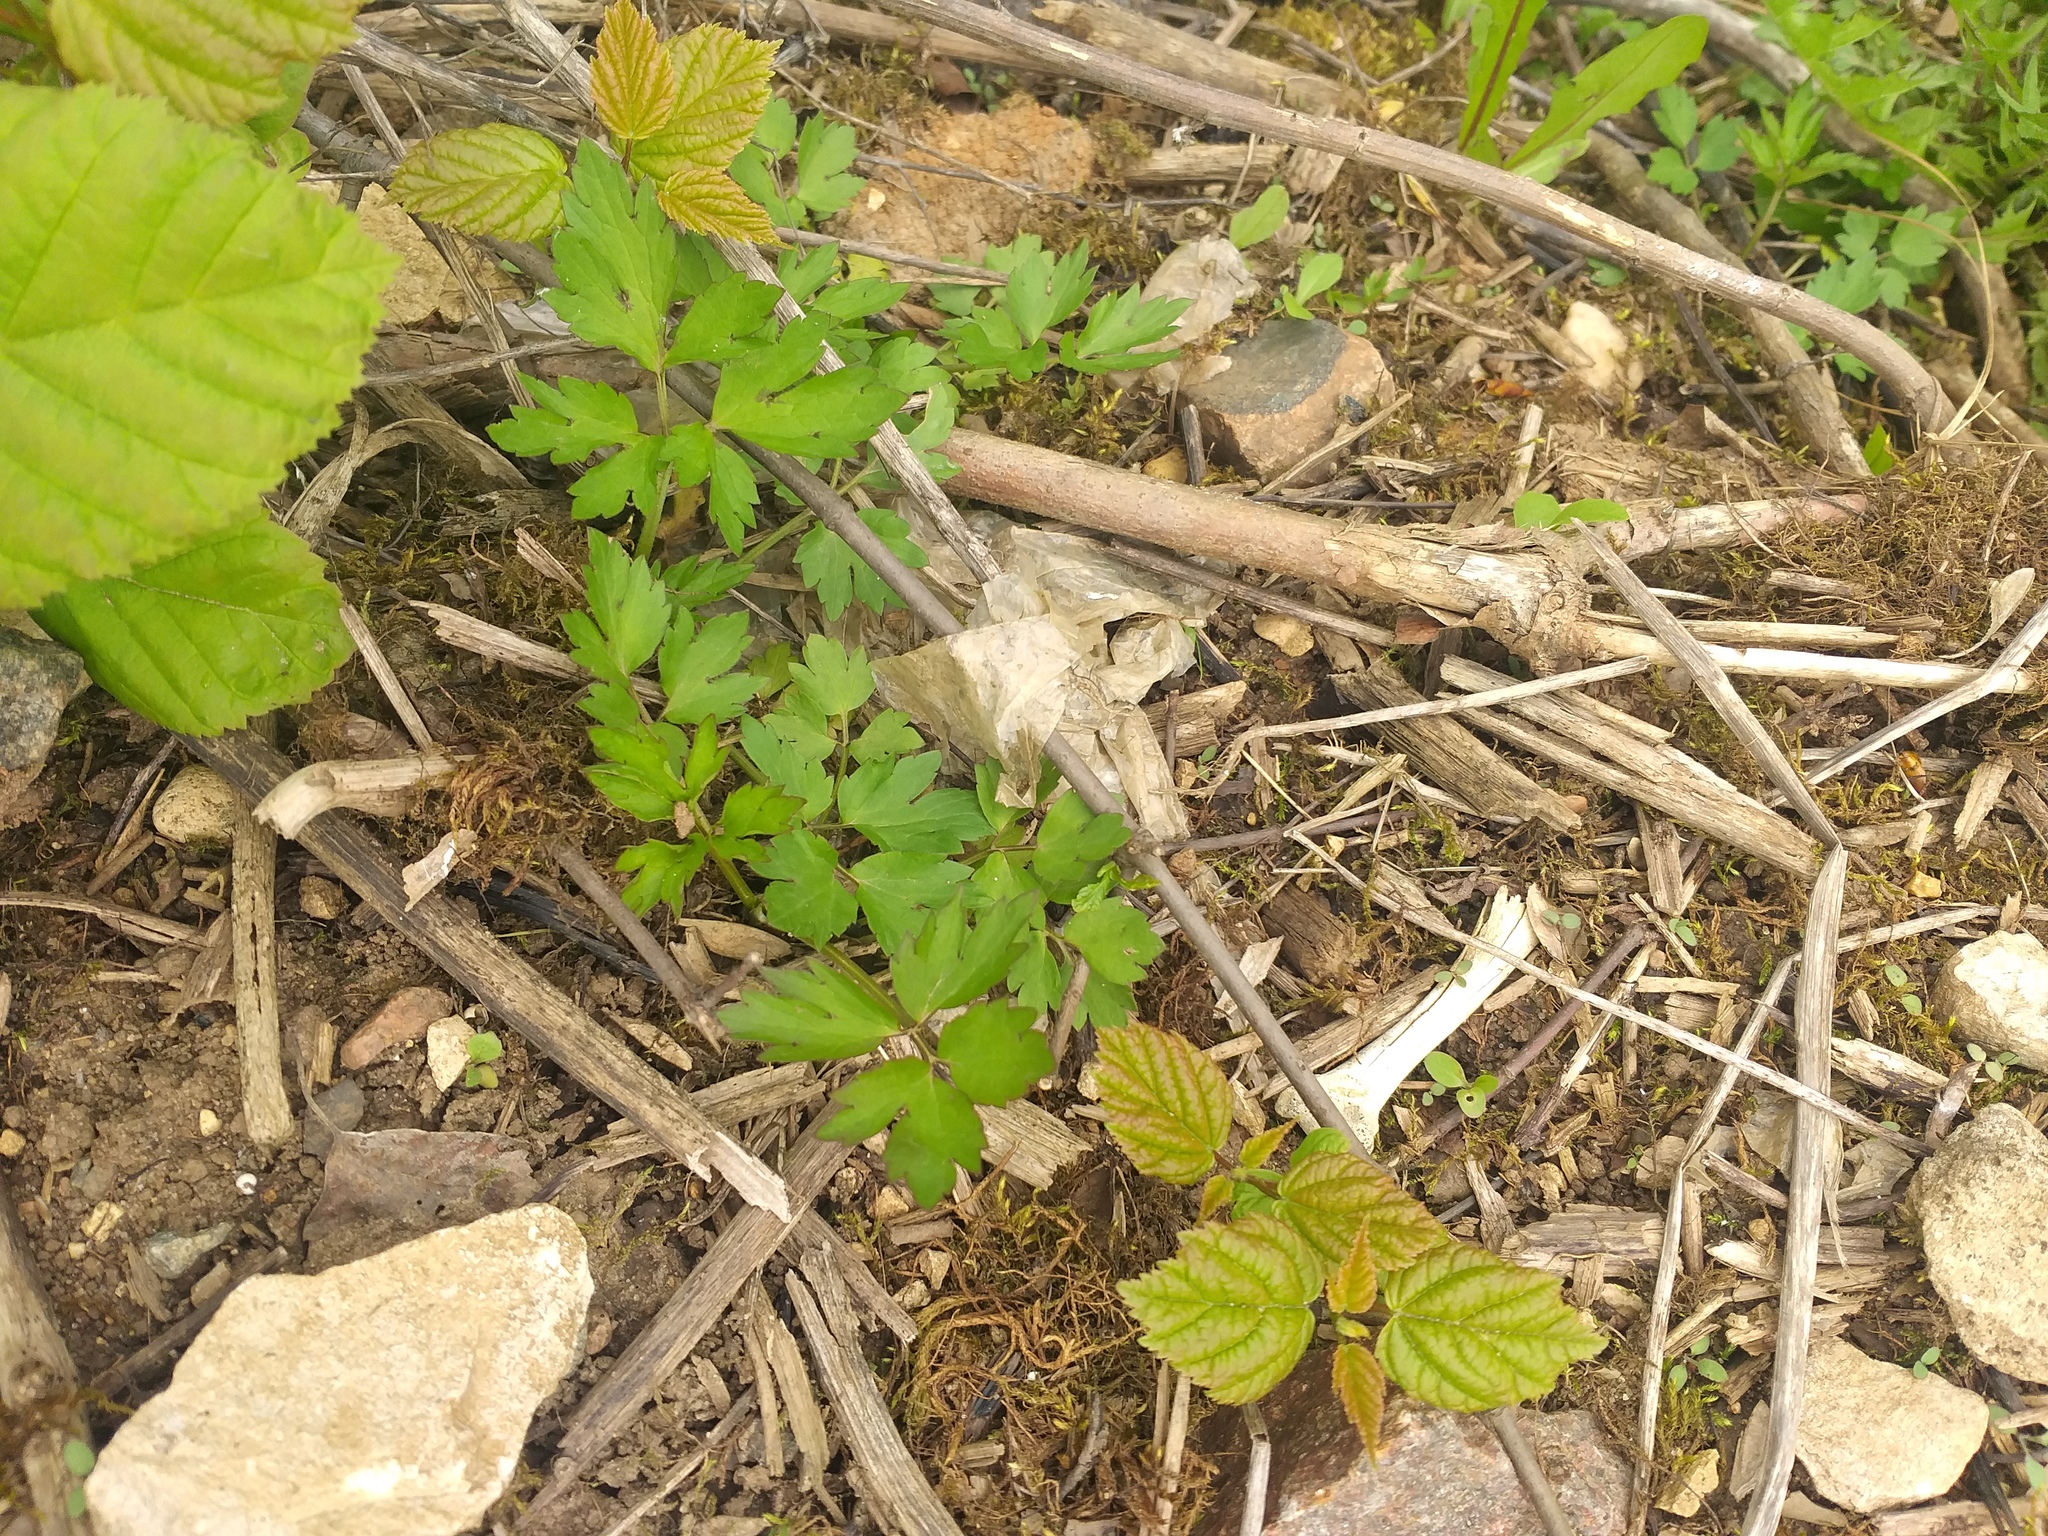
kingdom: Plantae
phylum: Tracheophyta
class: Magnoliopsida
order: Ranunculales
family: Ranunculaceae
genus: Ranunculus
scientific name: Ranunculus repens
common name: Creeping buttercup
